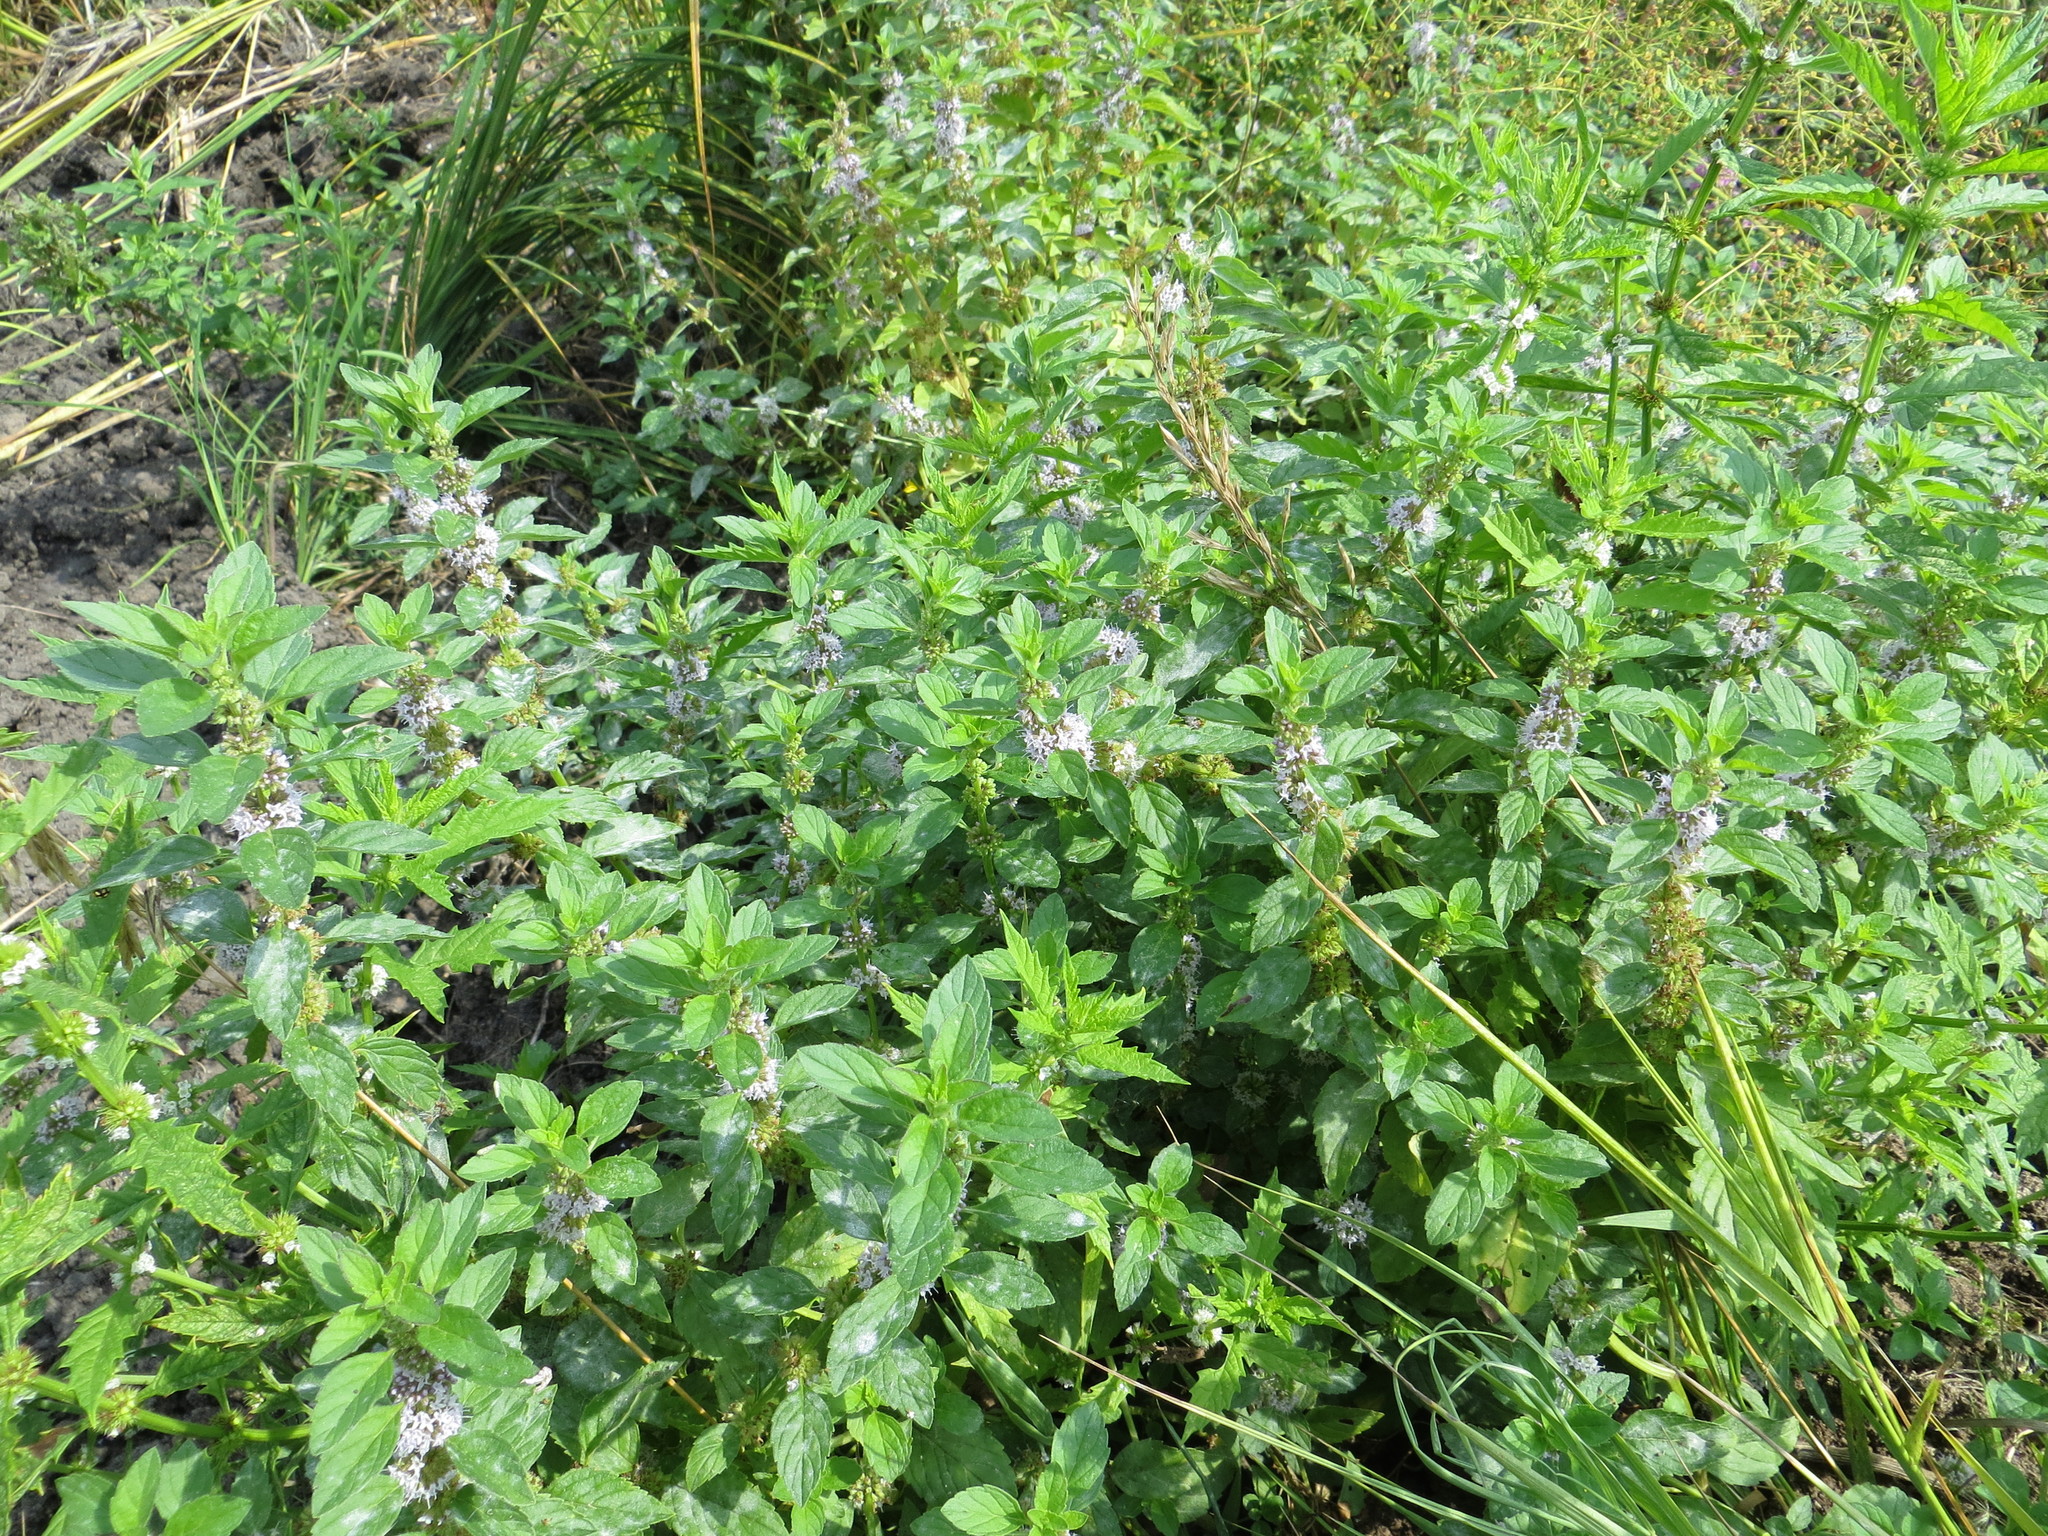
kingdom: Plantae
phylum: Tracheophyta
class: Magnoliopsida
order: Lamiales
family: Lamiaceae
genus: Mentha
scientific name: Mentha arvensis
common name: Corn mint
